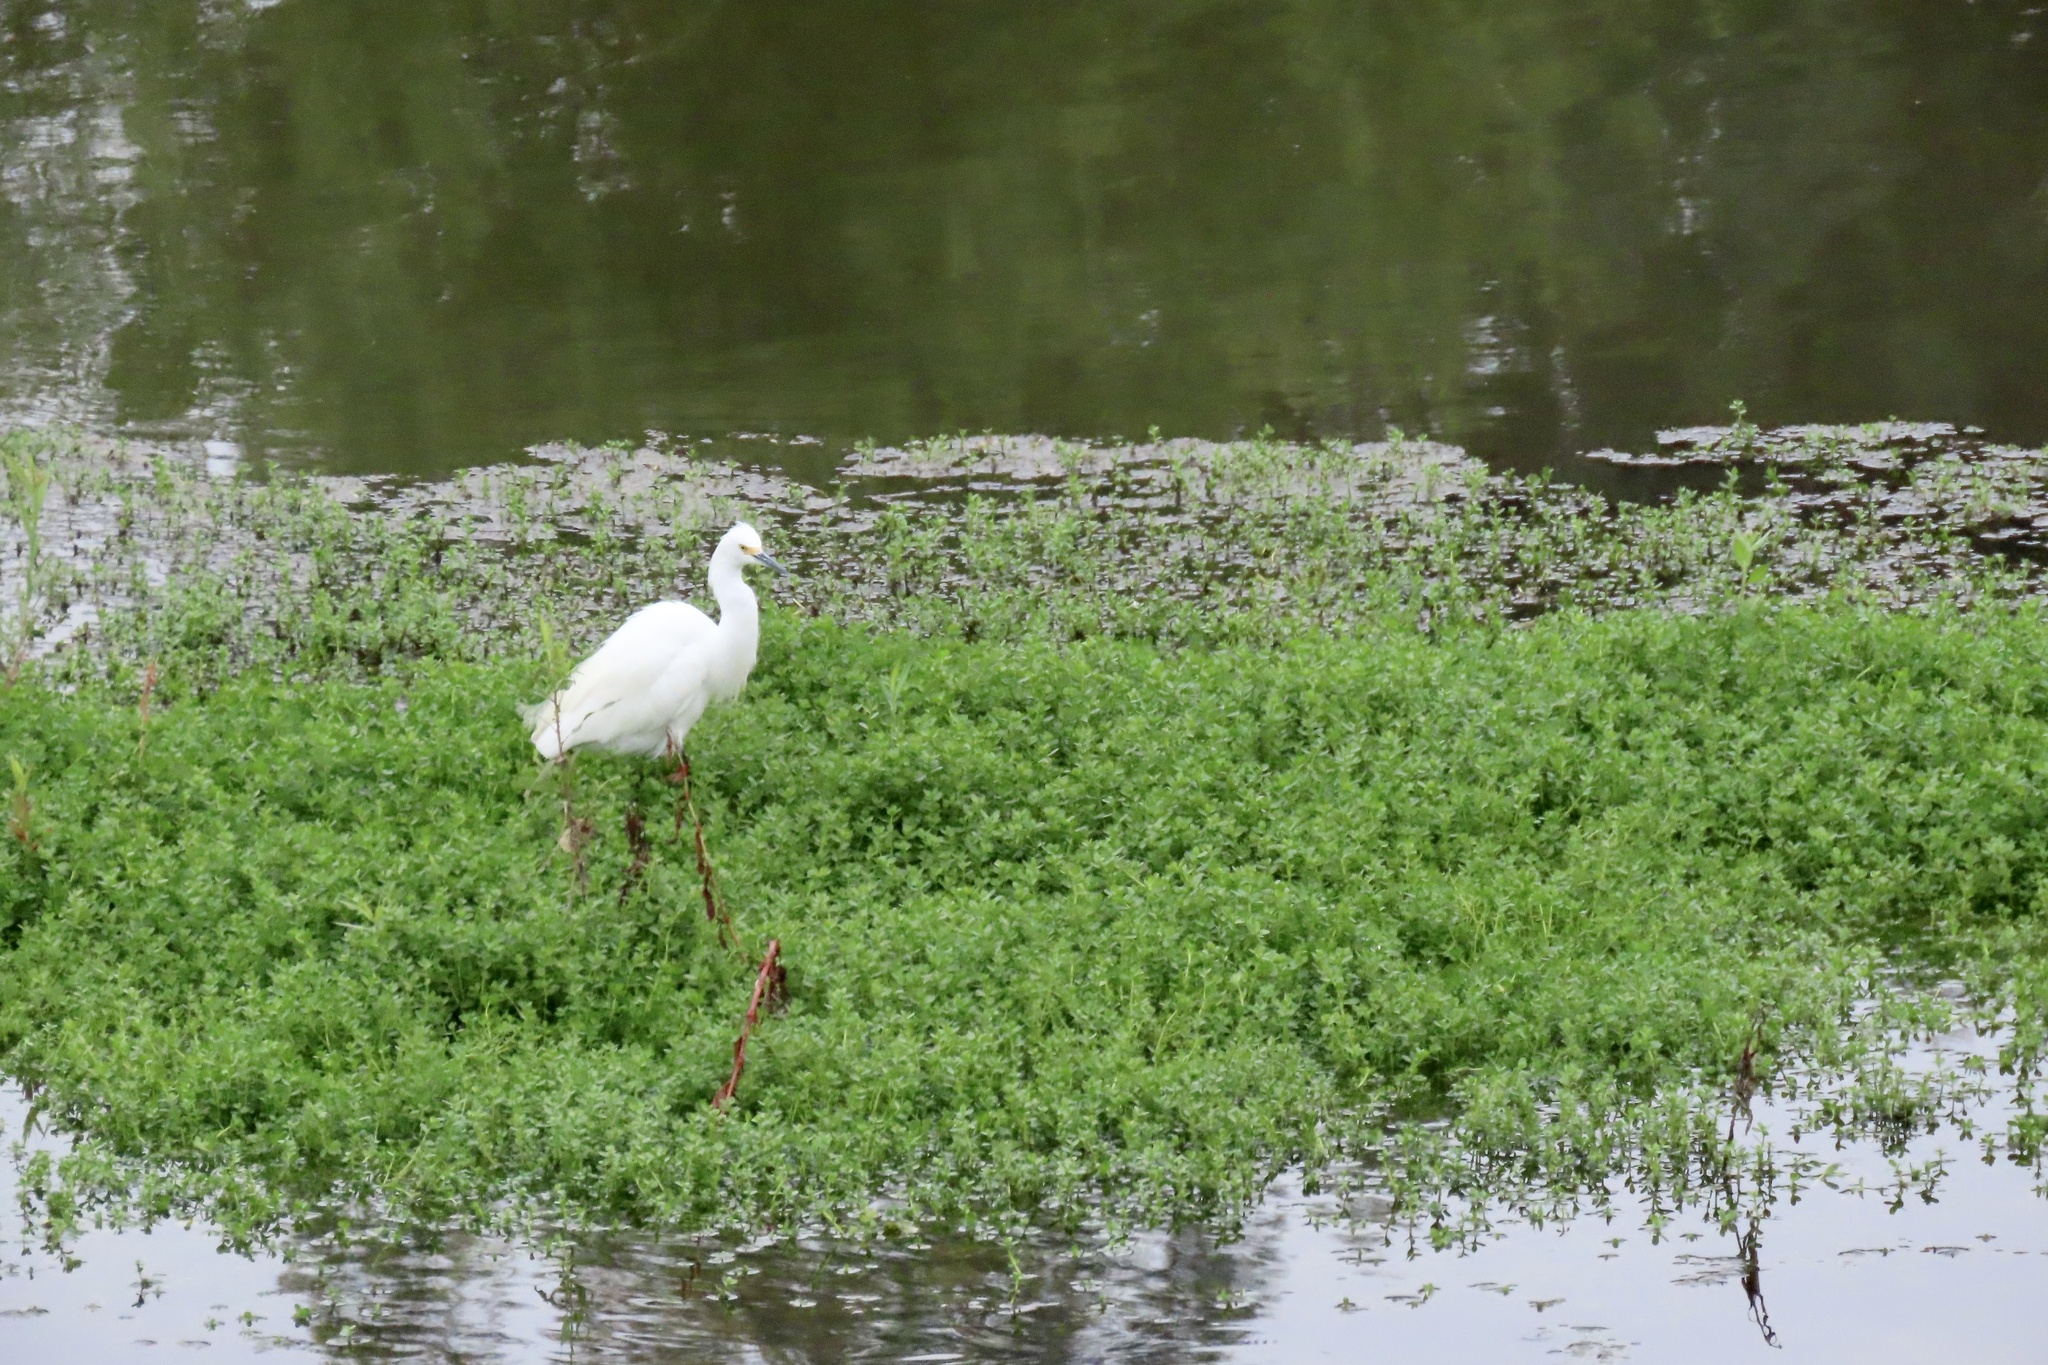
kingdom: Animalia
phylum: Chordata
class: Aves
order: Pelecaniformes
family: Ardeidae
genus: Egretta
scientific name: Egretta thula
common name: Snowy egret
